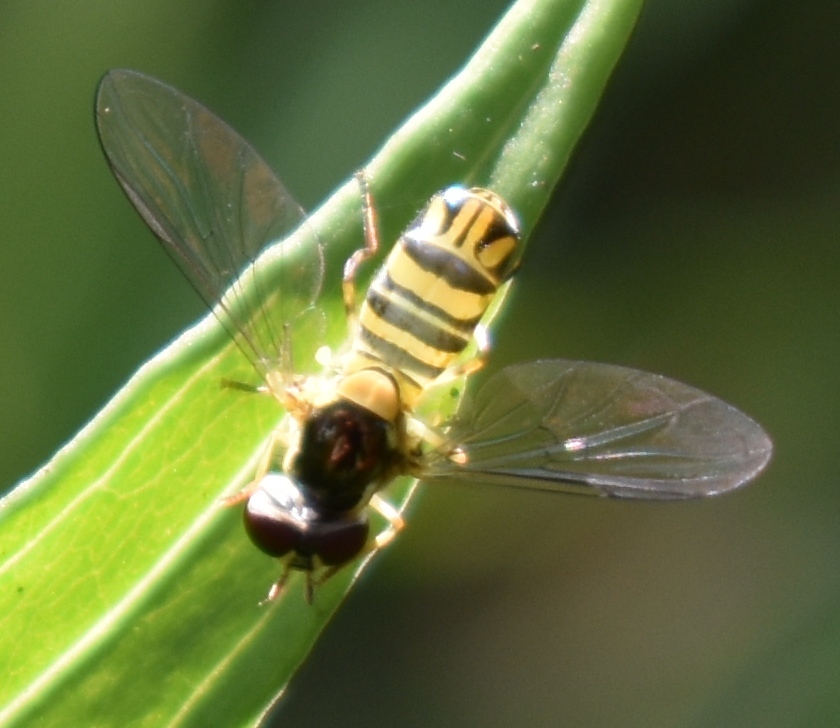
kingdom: Animalia
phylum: Arthropoda
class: Insecta
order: Diptera
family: Syrphidae
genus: Allograpta
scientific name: Allograpta obliqua
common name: Common oblique syrphid
